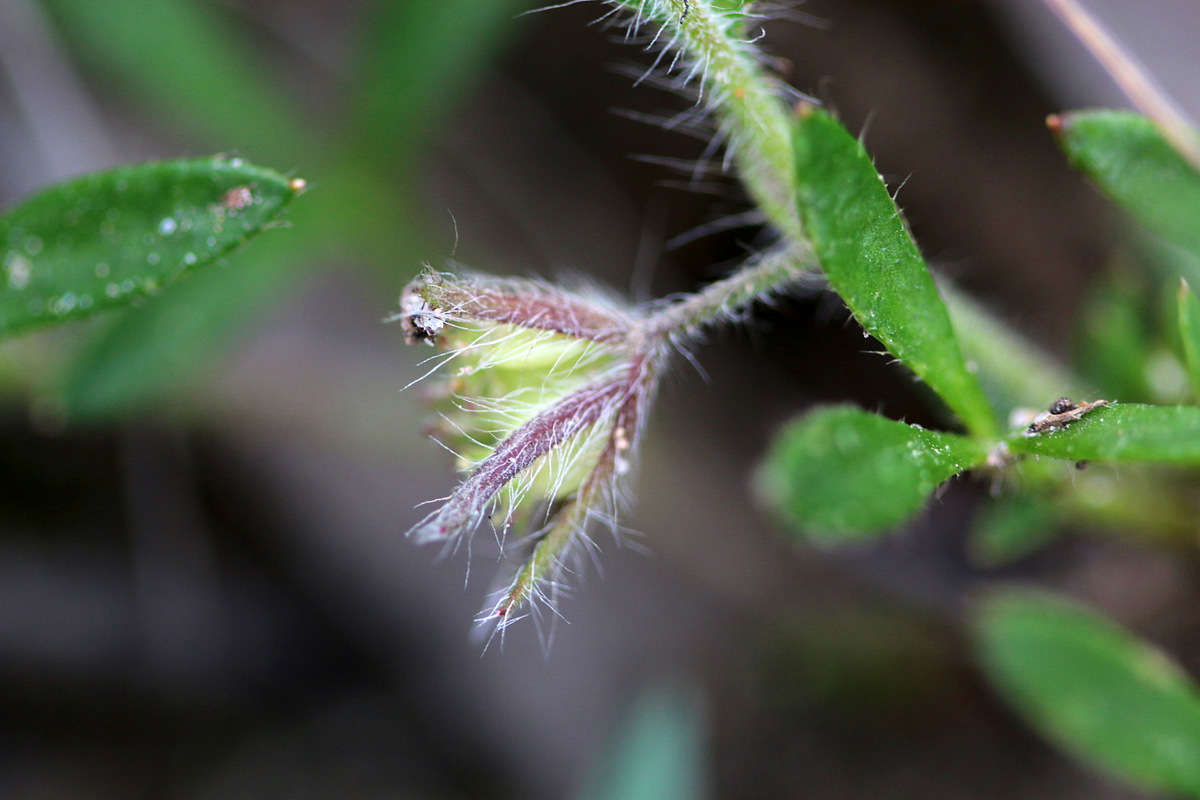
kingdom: Plantae
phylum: Tracheophyta
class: Magnoliopsida
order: Apiales
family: Apiaceae
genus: Xanthosia
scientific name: Xanthosia huegelii
